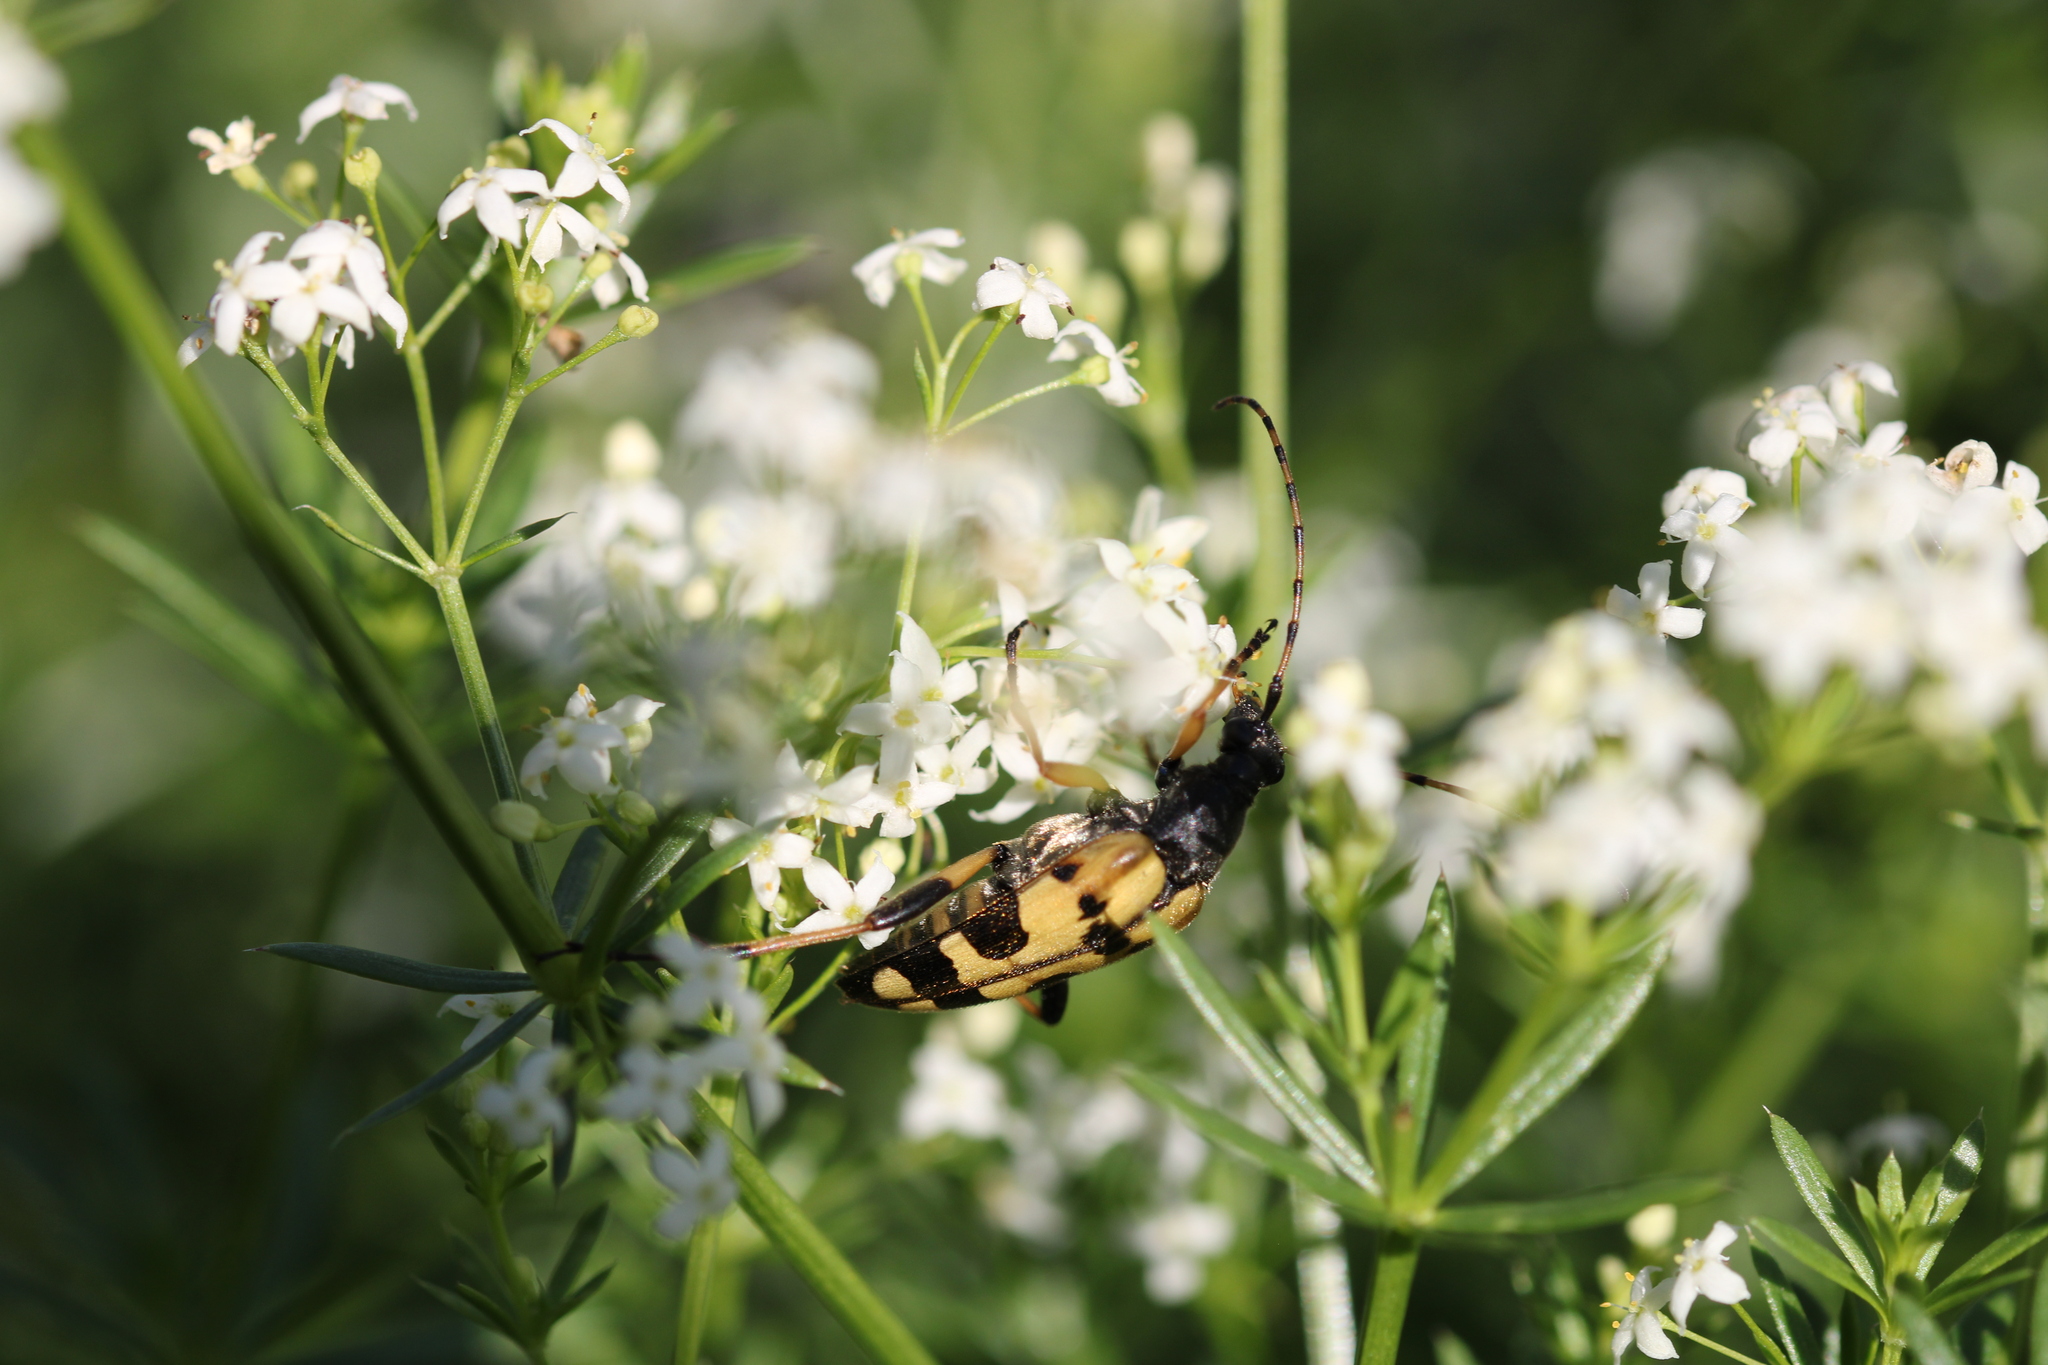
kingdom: Animalia
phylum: Arthropoda
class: Insecta
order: Coleoptera
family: Cerambycidae
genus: Rutpela
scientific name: Rutpela maculata
